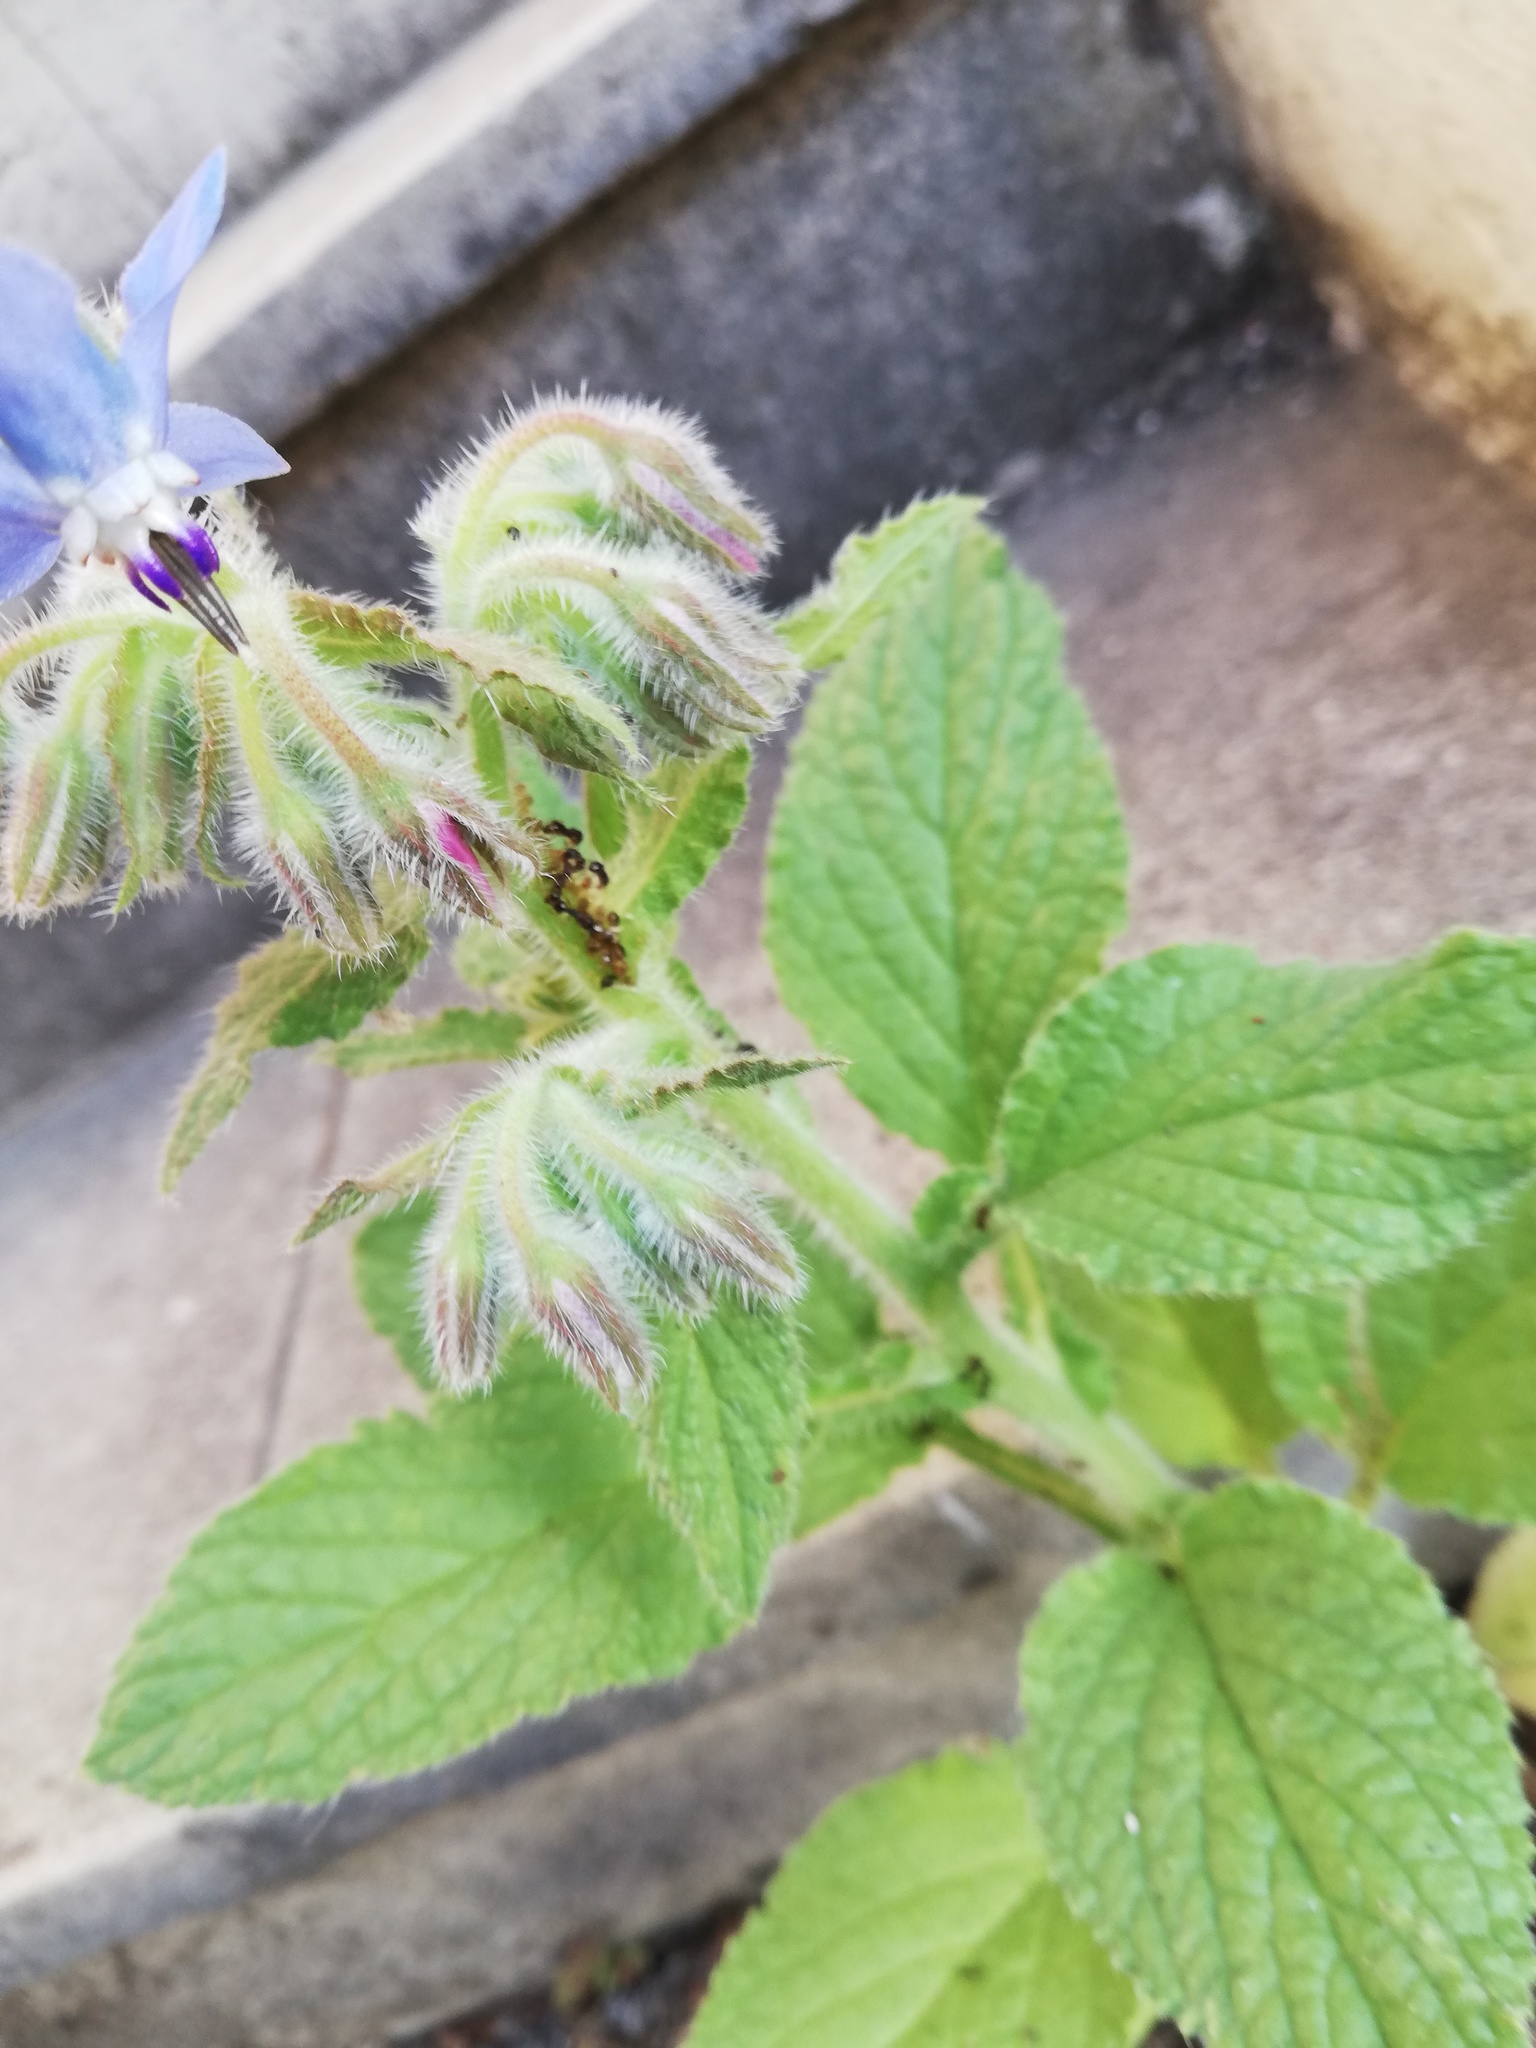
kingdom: Plantae
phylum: Tracheophyta
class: Magnoliopsida
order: Boraginales
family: Boraginaceae
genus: Borago
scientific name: Borago officinalis
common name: Borage
